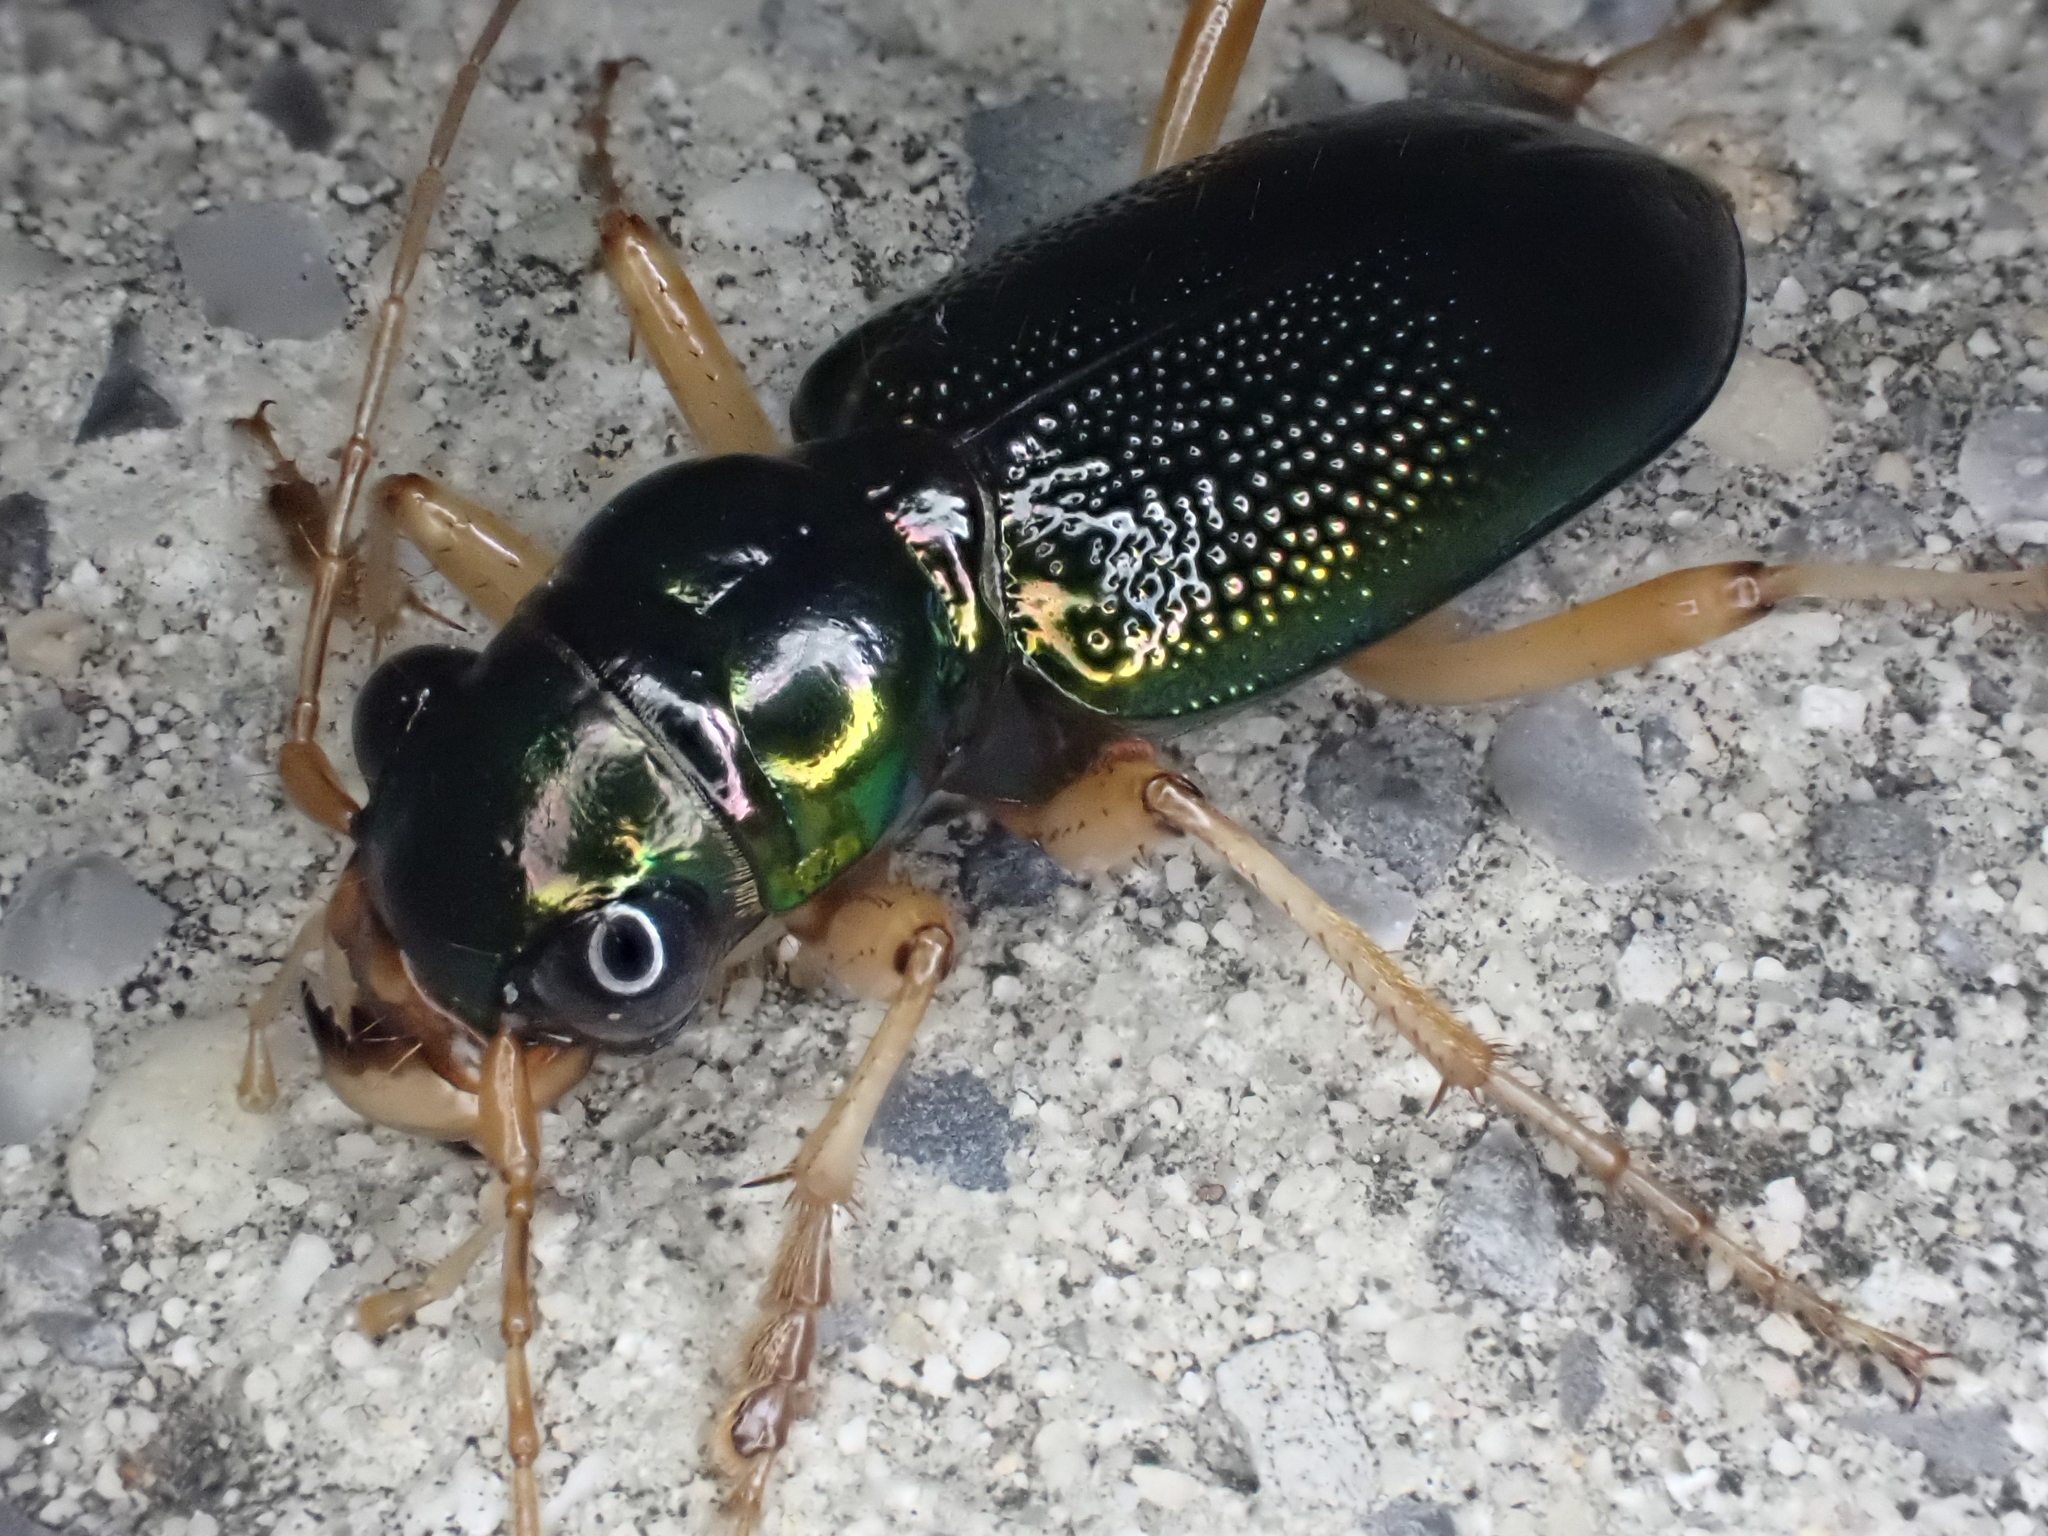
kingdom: Animalia
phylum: Arthropoda
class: Insecta
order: Coleoptera
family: Carabidae
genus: Tetracha
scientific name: Tetracha virginica
